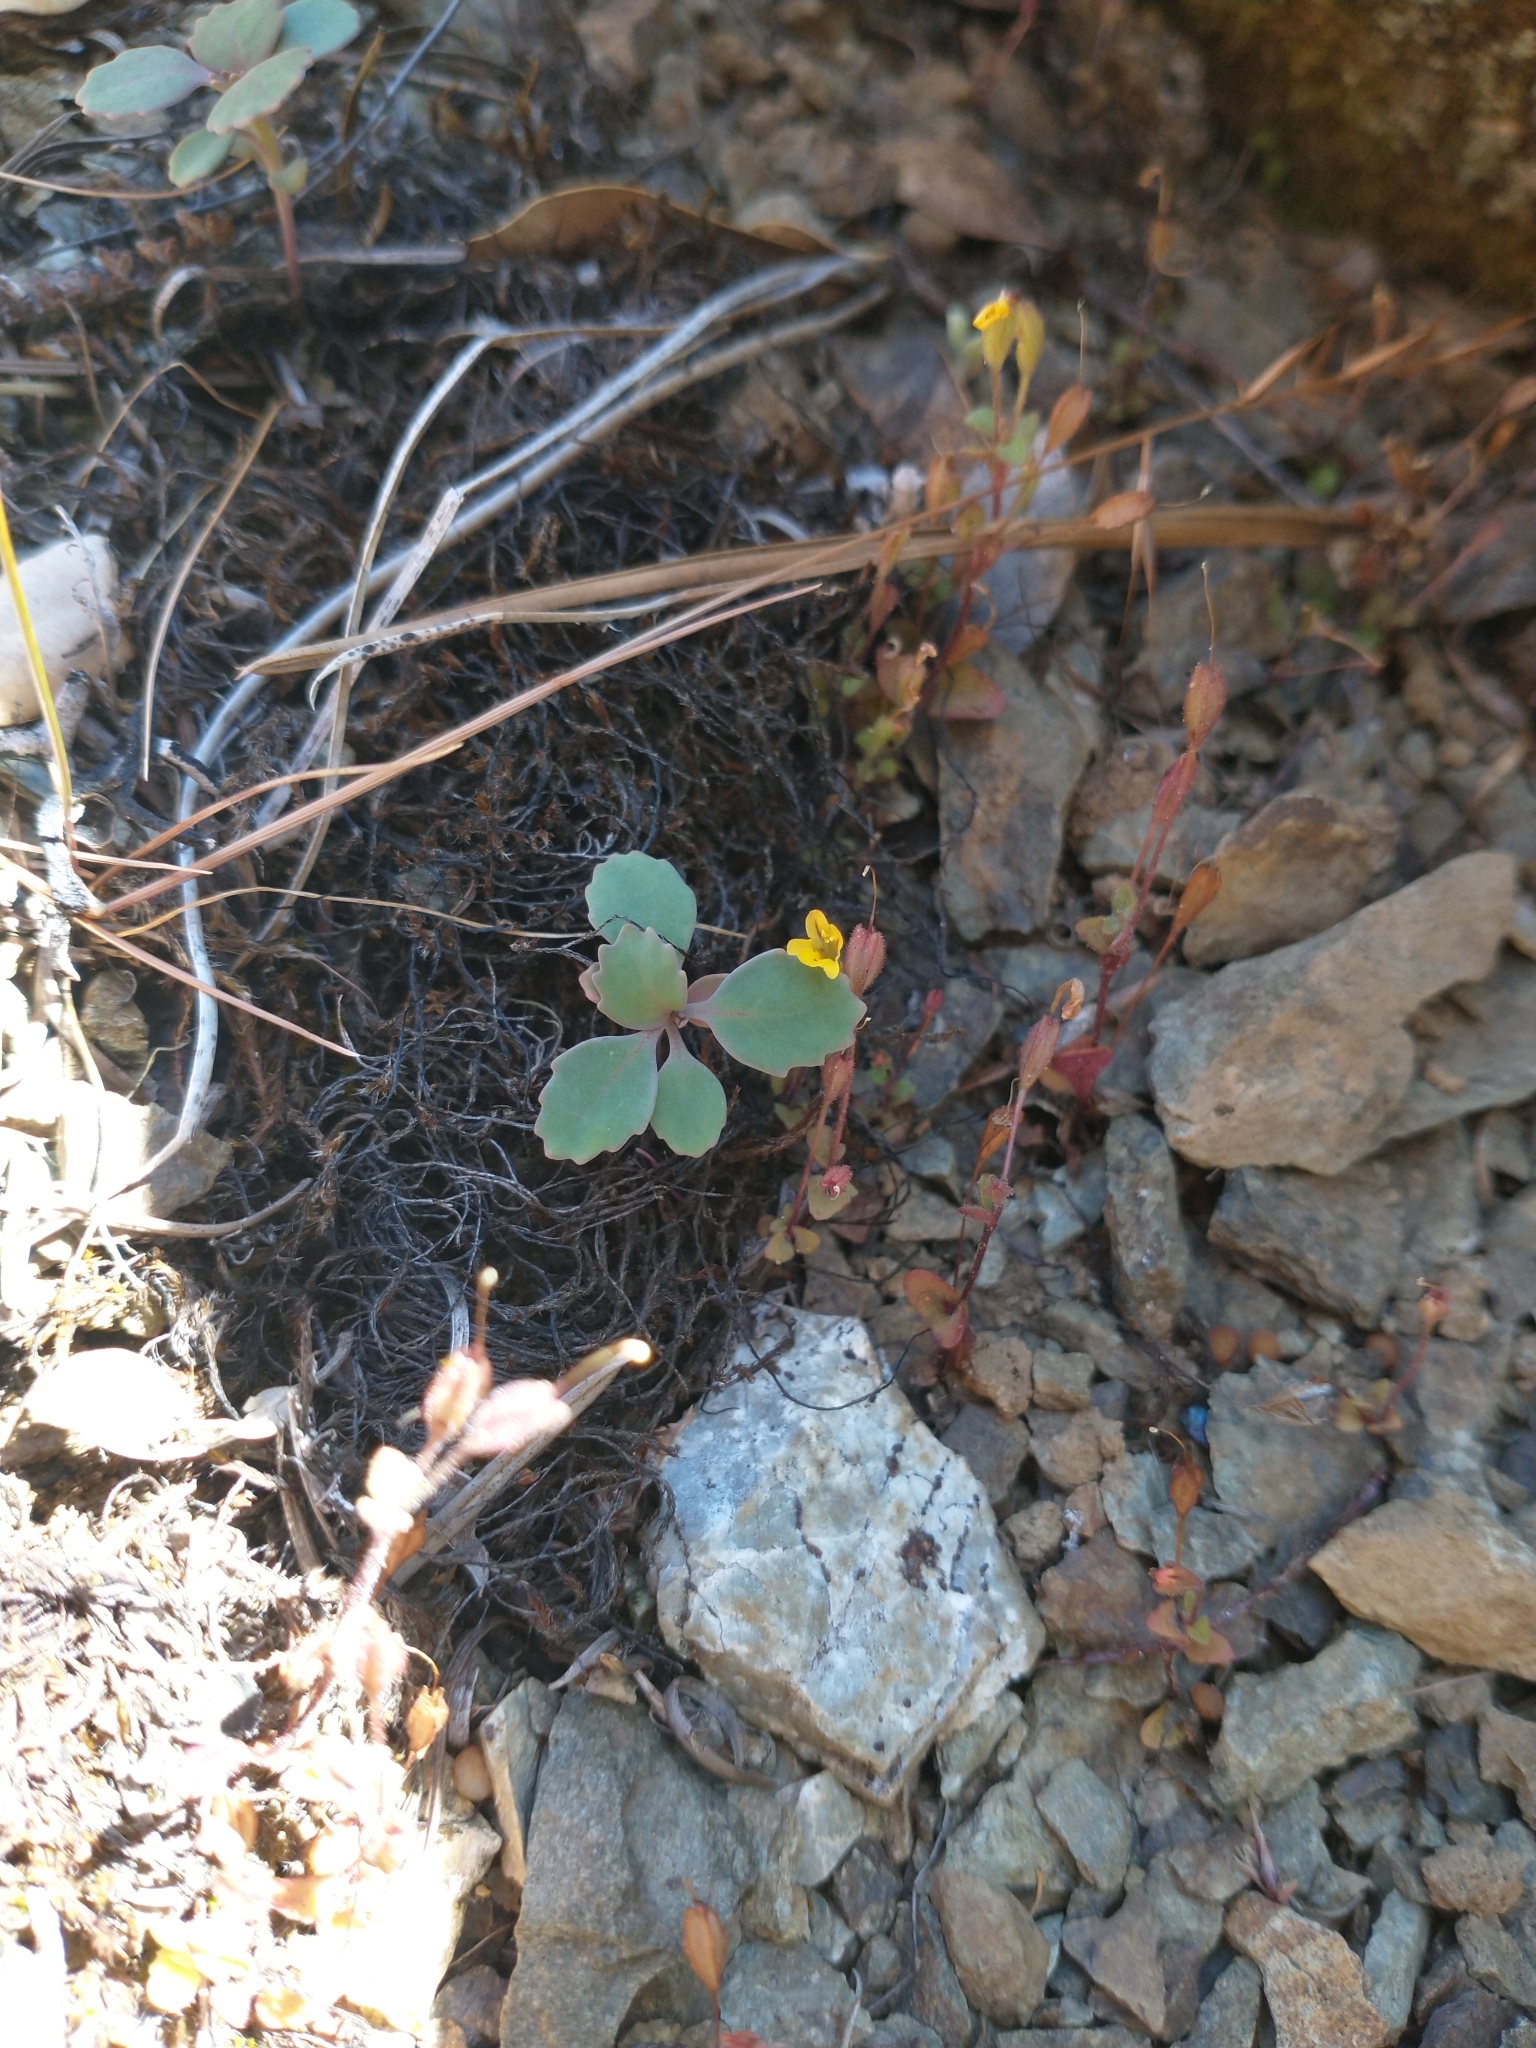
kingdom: Plantae
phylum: Tracheophyta
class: Magnoliopsida
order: Lamiales
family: Phrymaceae
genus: Erythranthe
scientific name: Erythranthe alsinoides
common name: Chickweed monkeyflower
